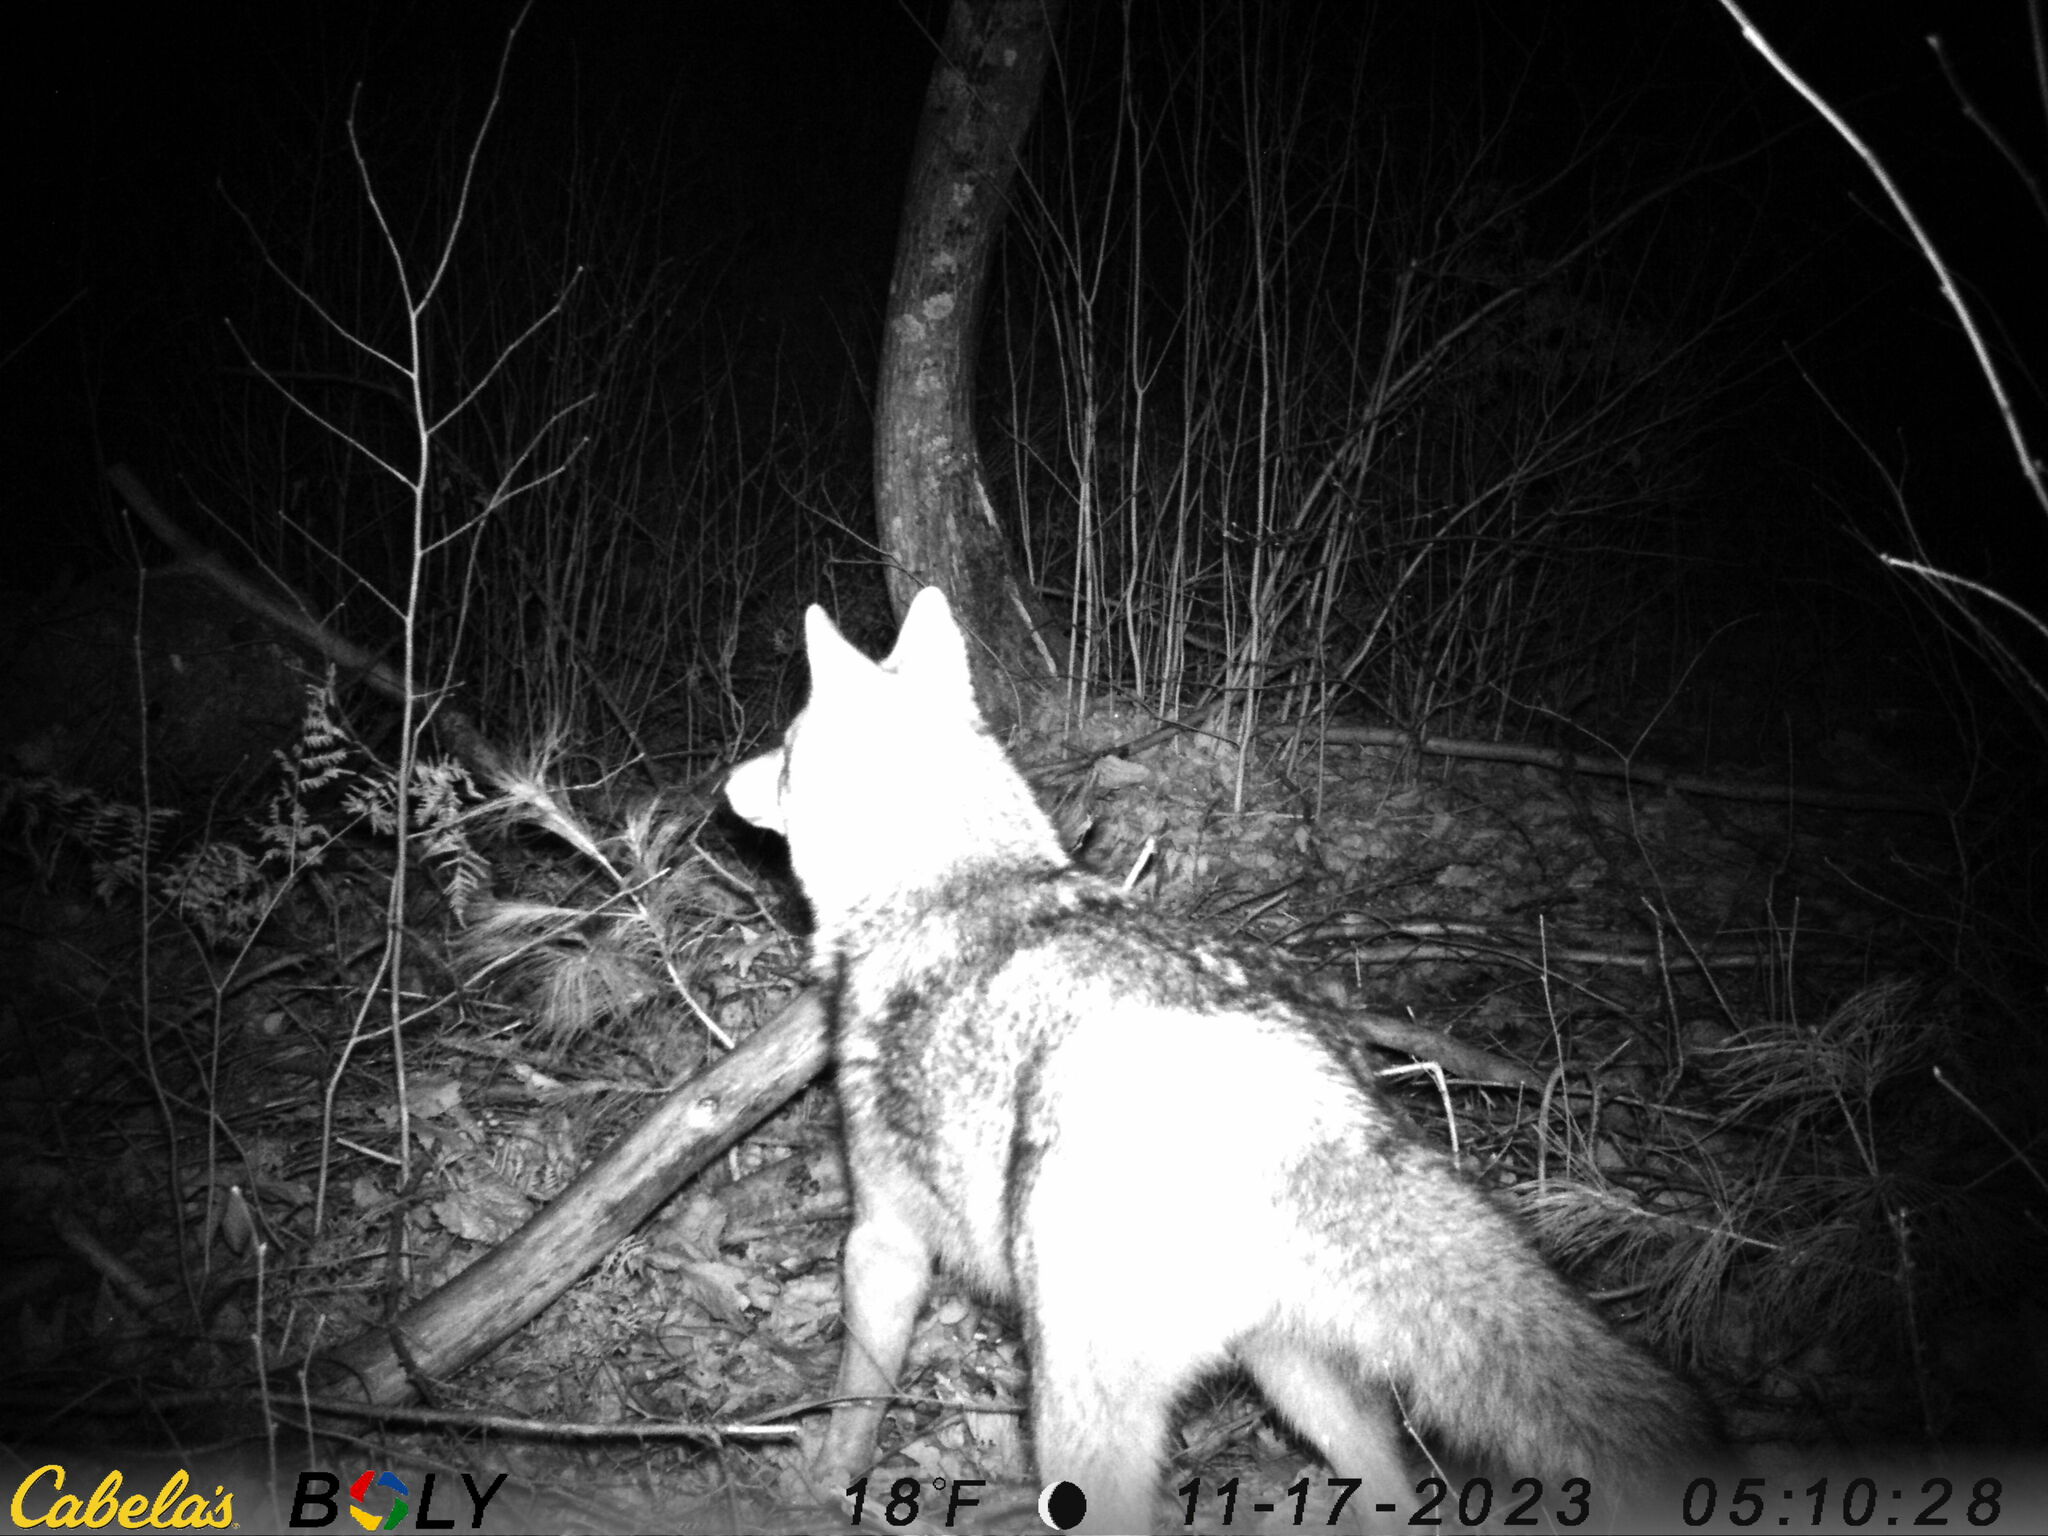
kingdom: Animalia
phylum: Chordata
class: Mammalia
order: Carnivora
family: Canidae
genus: Canis
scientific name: Canis latrans
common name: Coyote
